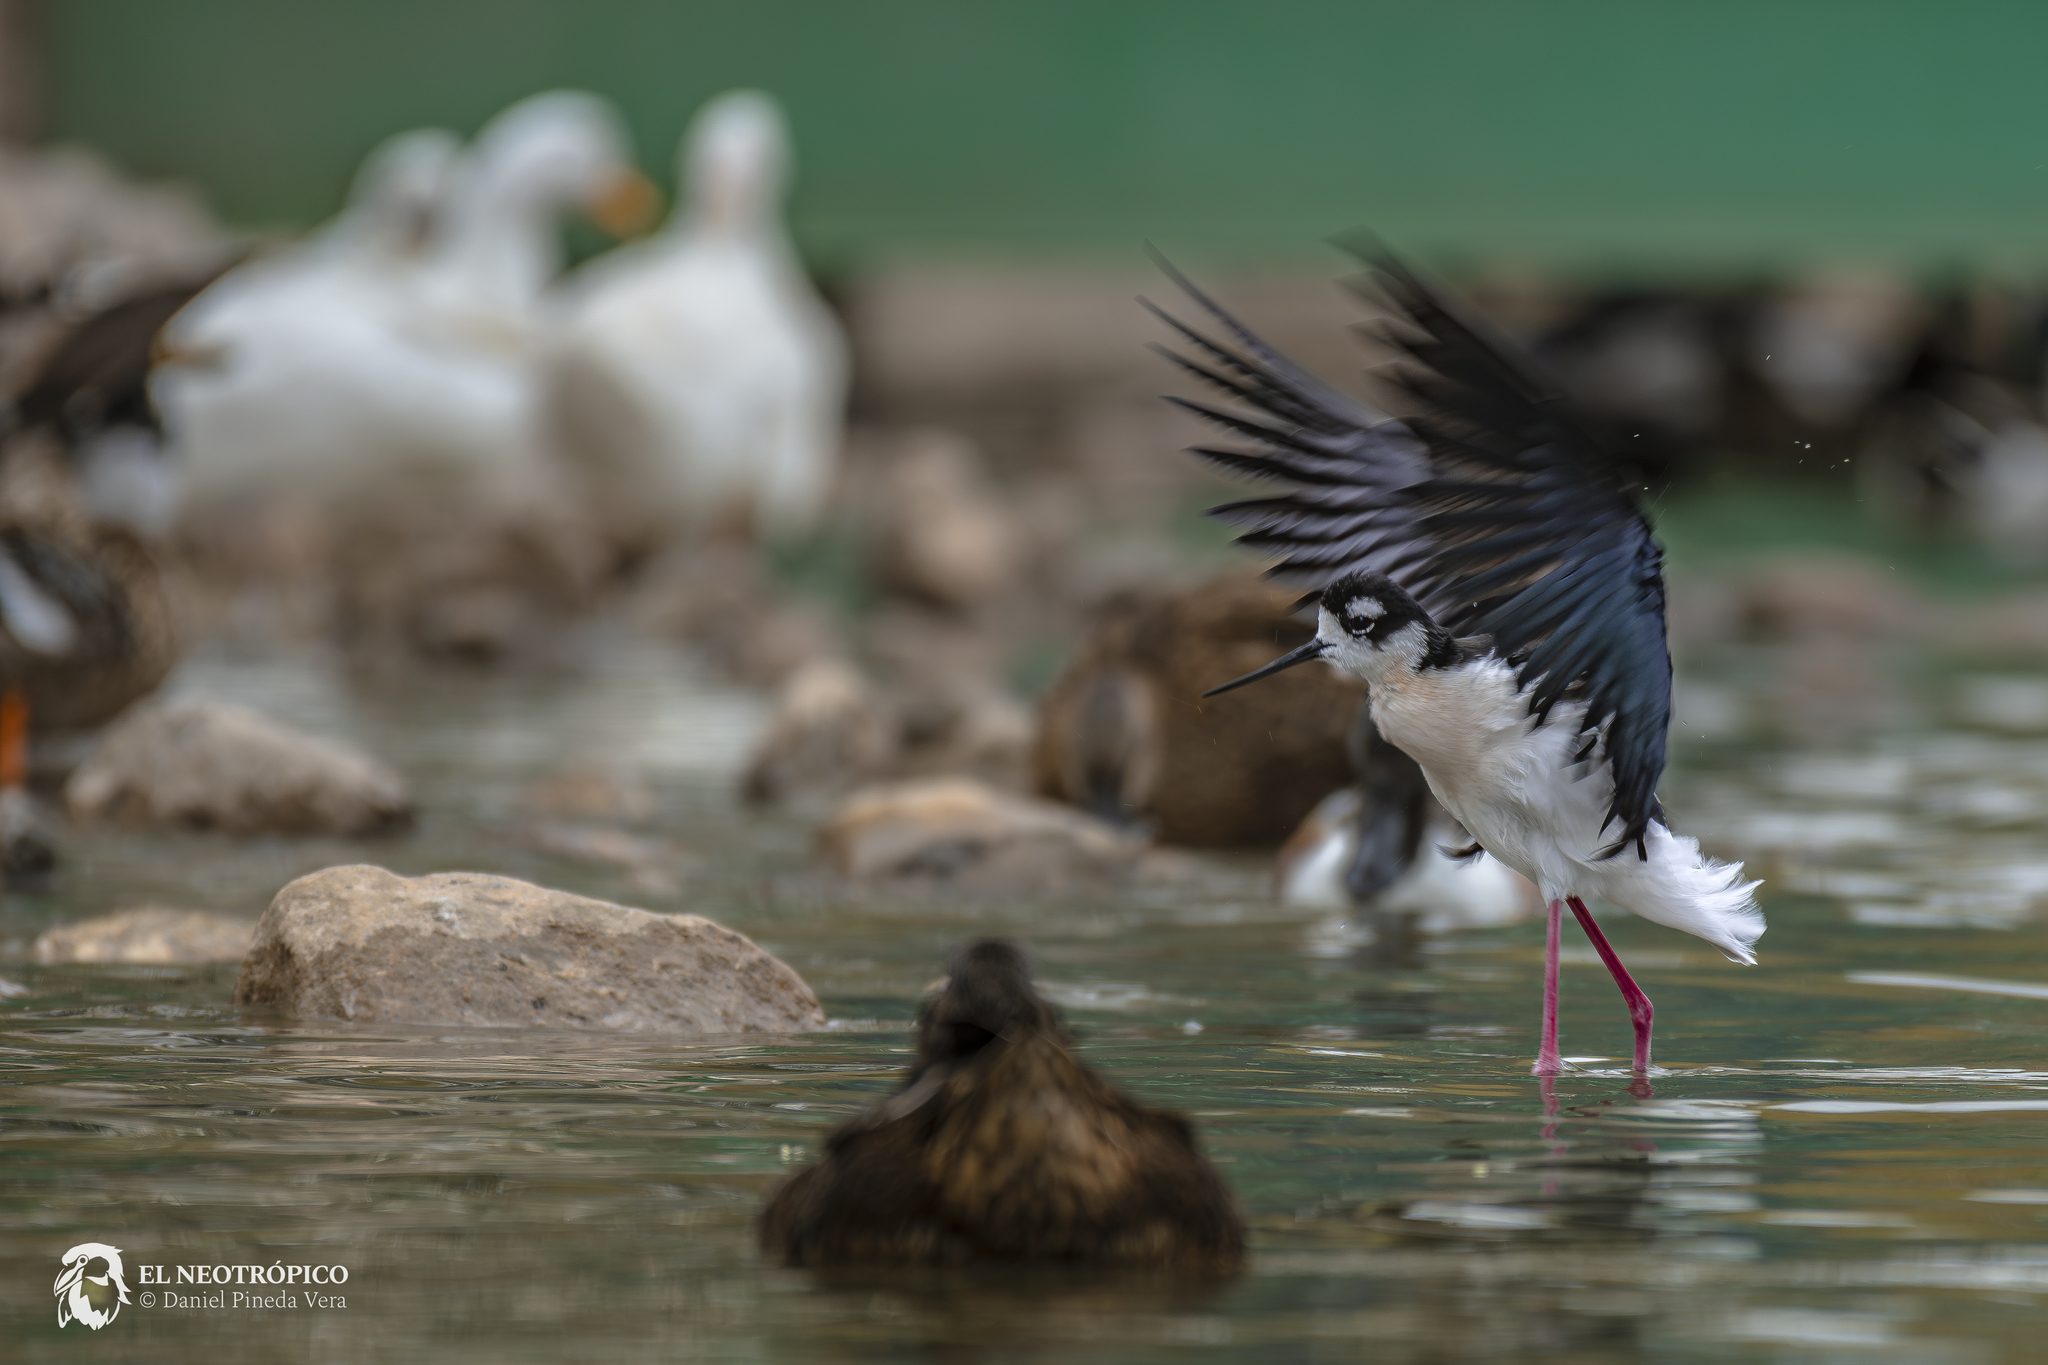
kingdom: Animalia
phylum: Chordata
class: Aves
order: Charadriiformes
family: Recurvirostridae
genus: Himantopus
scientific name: Himantopus mexicanus
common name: Black-necked stilt
